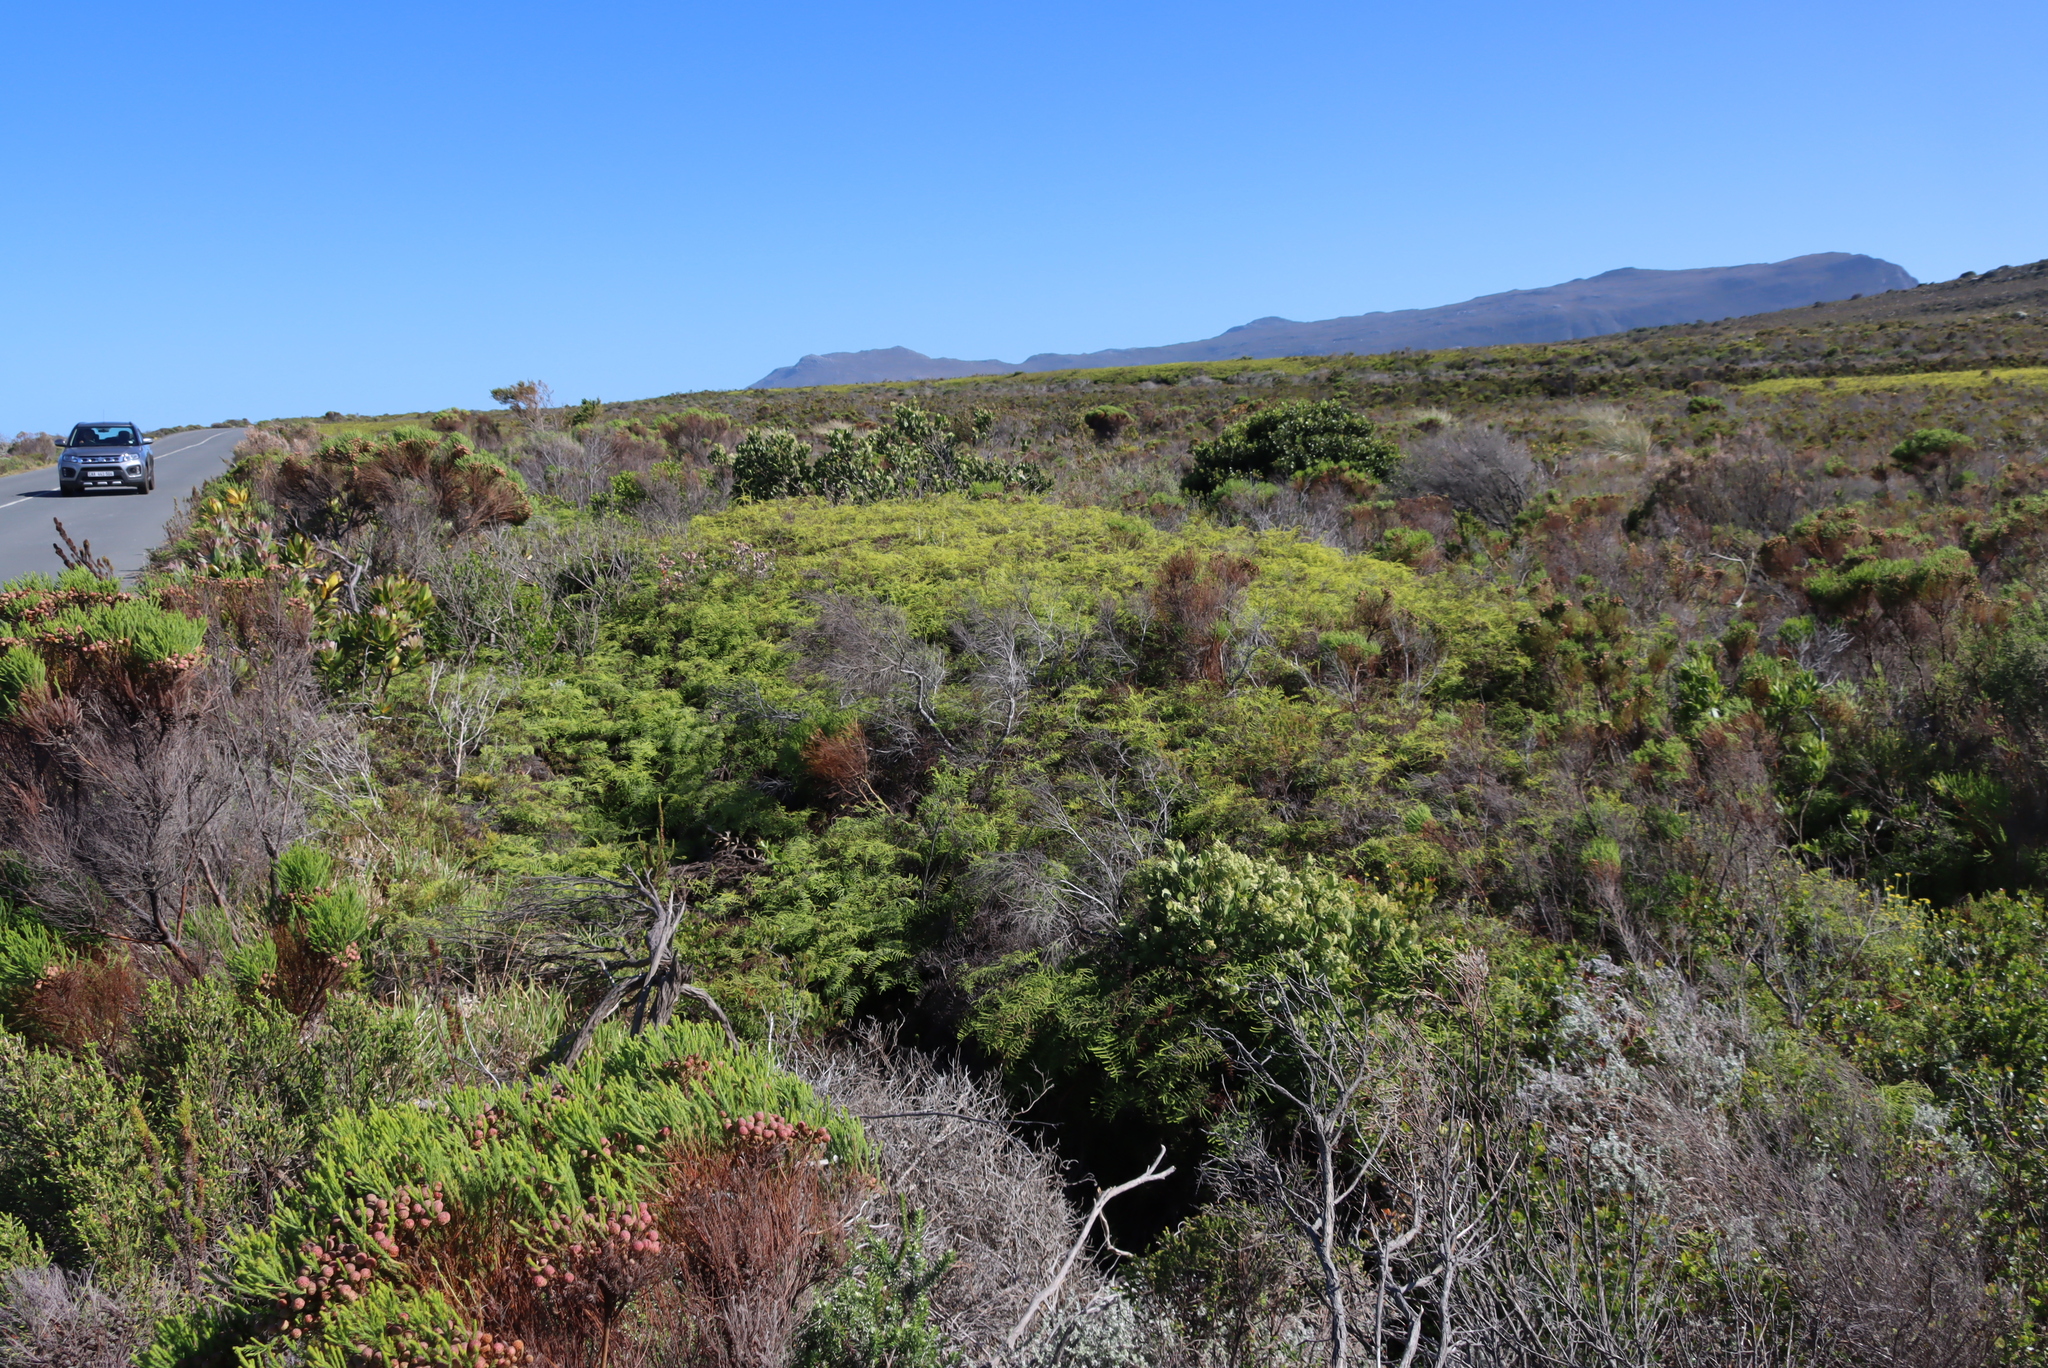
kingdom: Plantae
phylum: Tracheophyta
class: Polypodiopsida
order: Gleicheniales
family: Gleicheniaceae
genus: Gleichenia
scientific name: Gleichenia polypodioides
